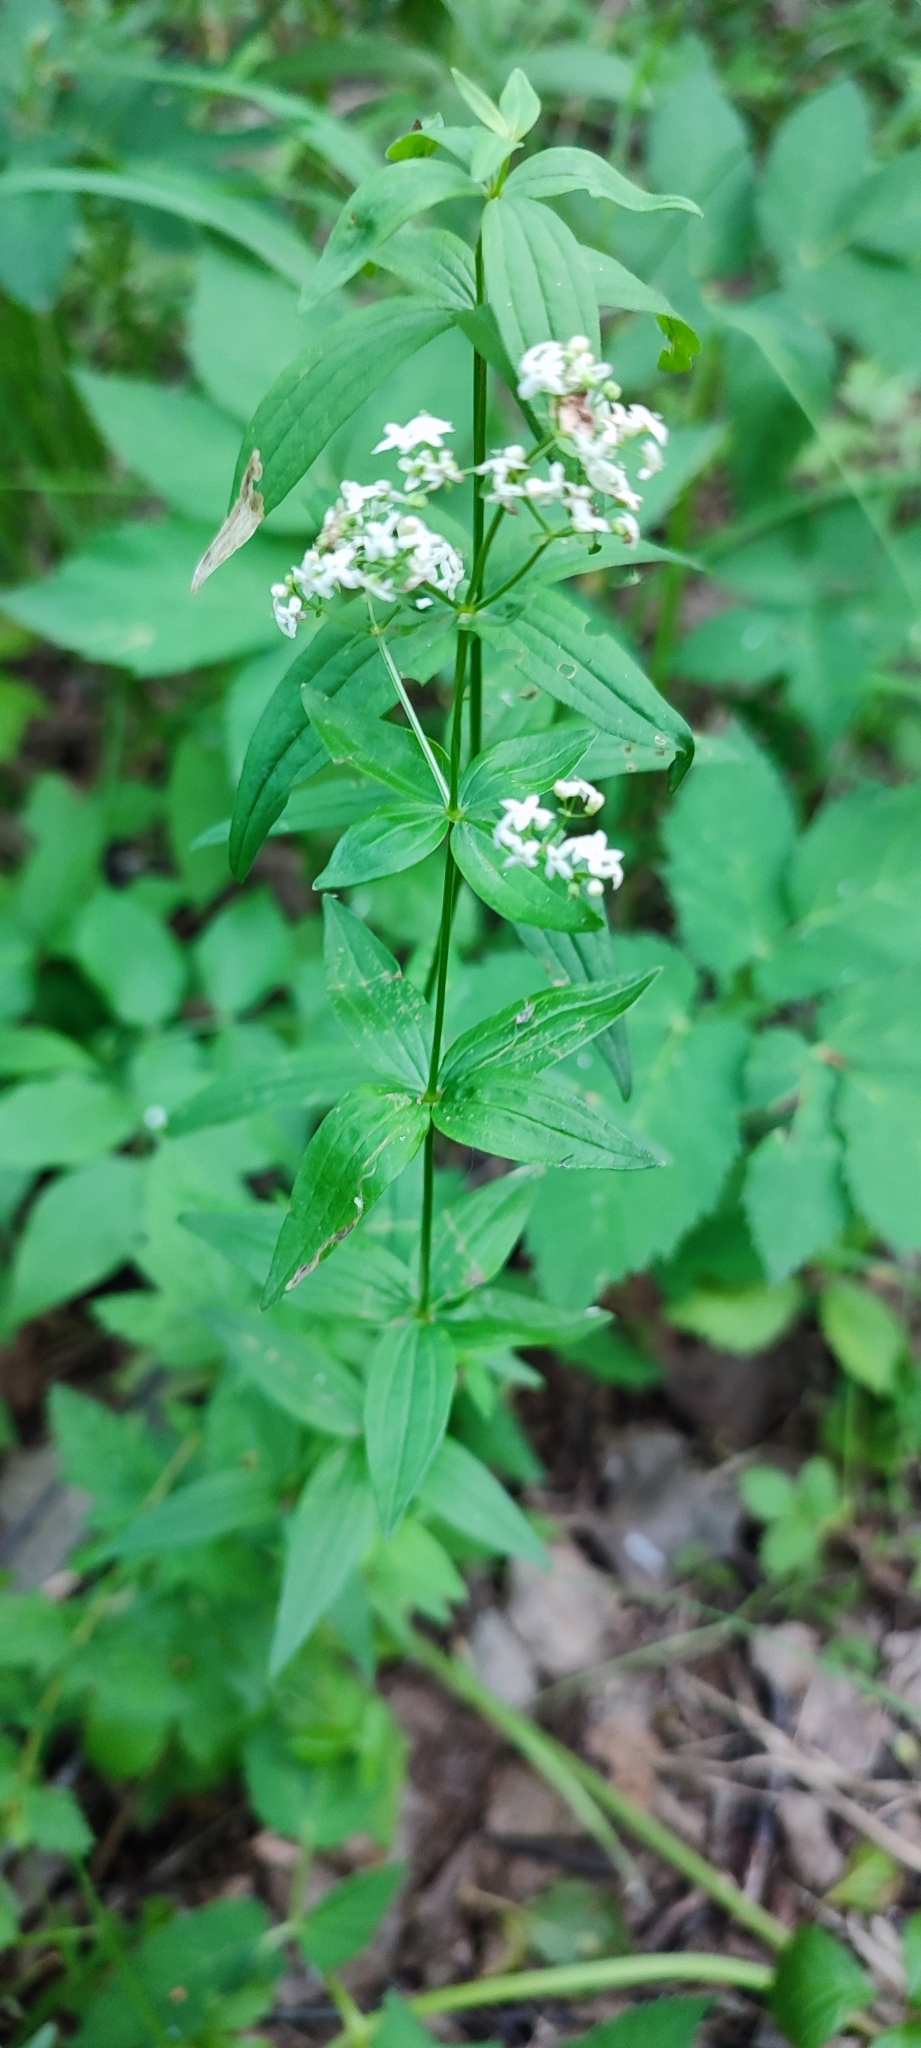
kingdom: Plantae
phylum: Tracheophyta
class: Magnoliopsida
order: Gentianales
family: Rubiaceae
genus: Galium
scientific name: Galium rubioides
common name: European bedstraw
